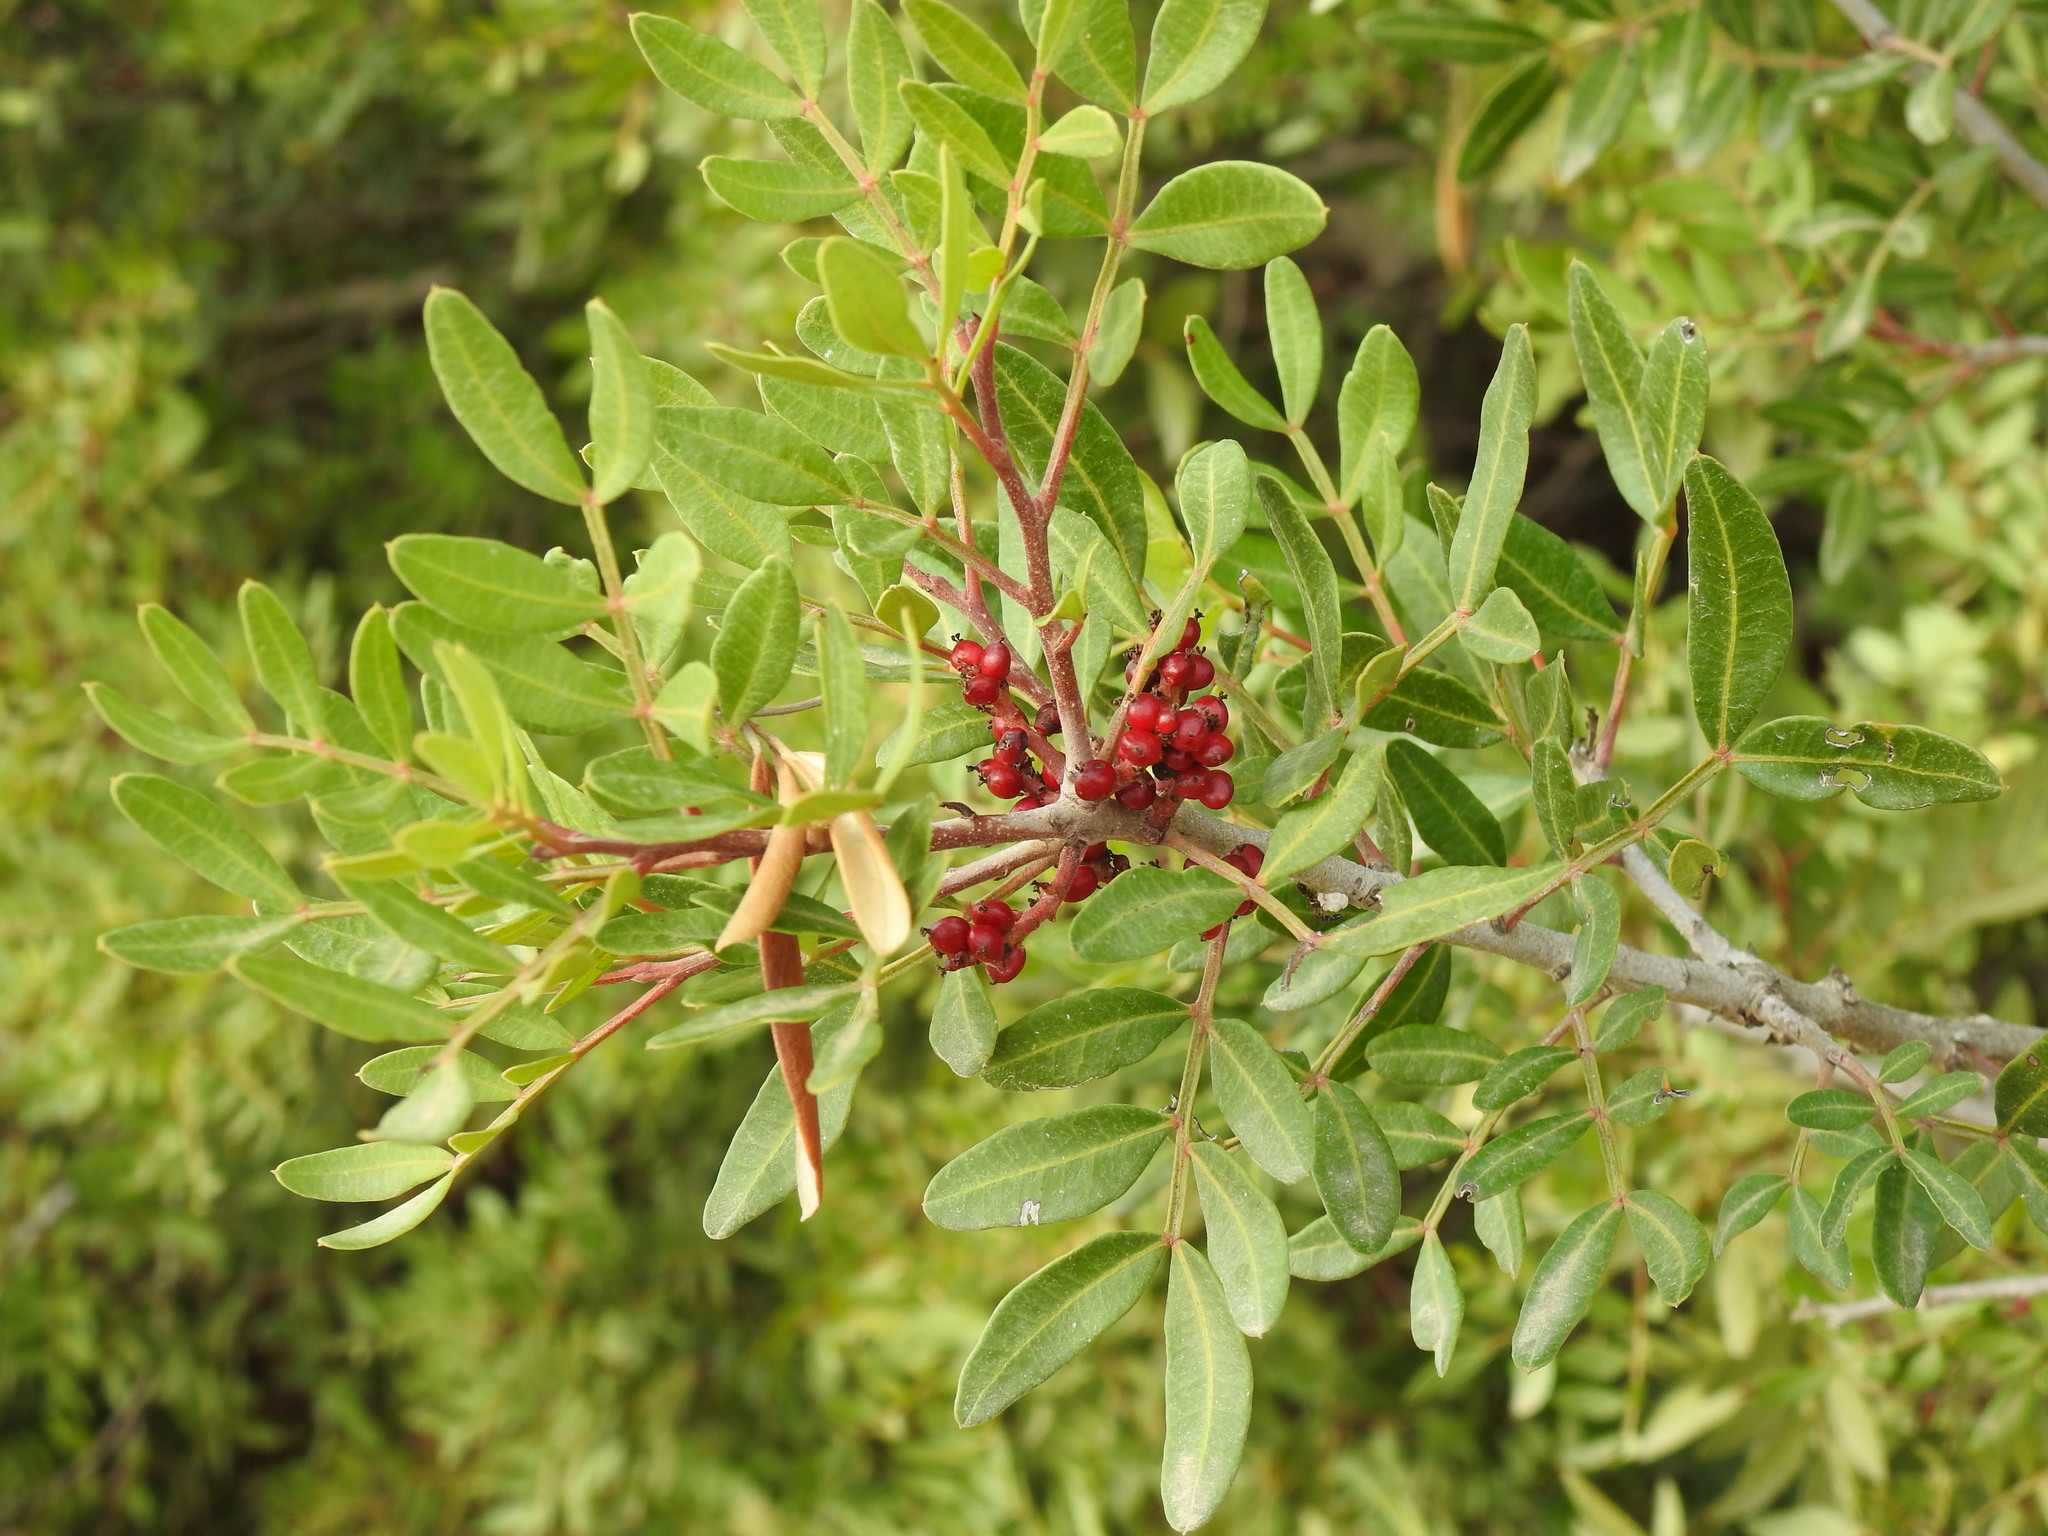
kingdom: Plantae
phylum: Tracheophyta
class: Magnoliopsida
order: Sapindales
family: Anacardiaceae
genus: Pistacia
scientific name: Pistacia lentiscus
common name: Lentisk
